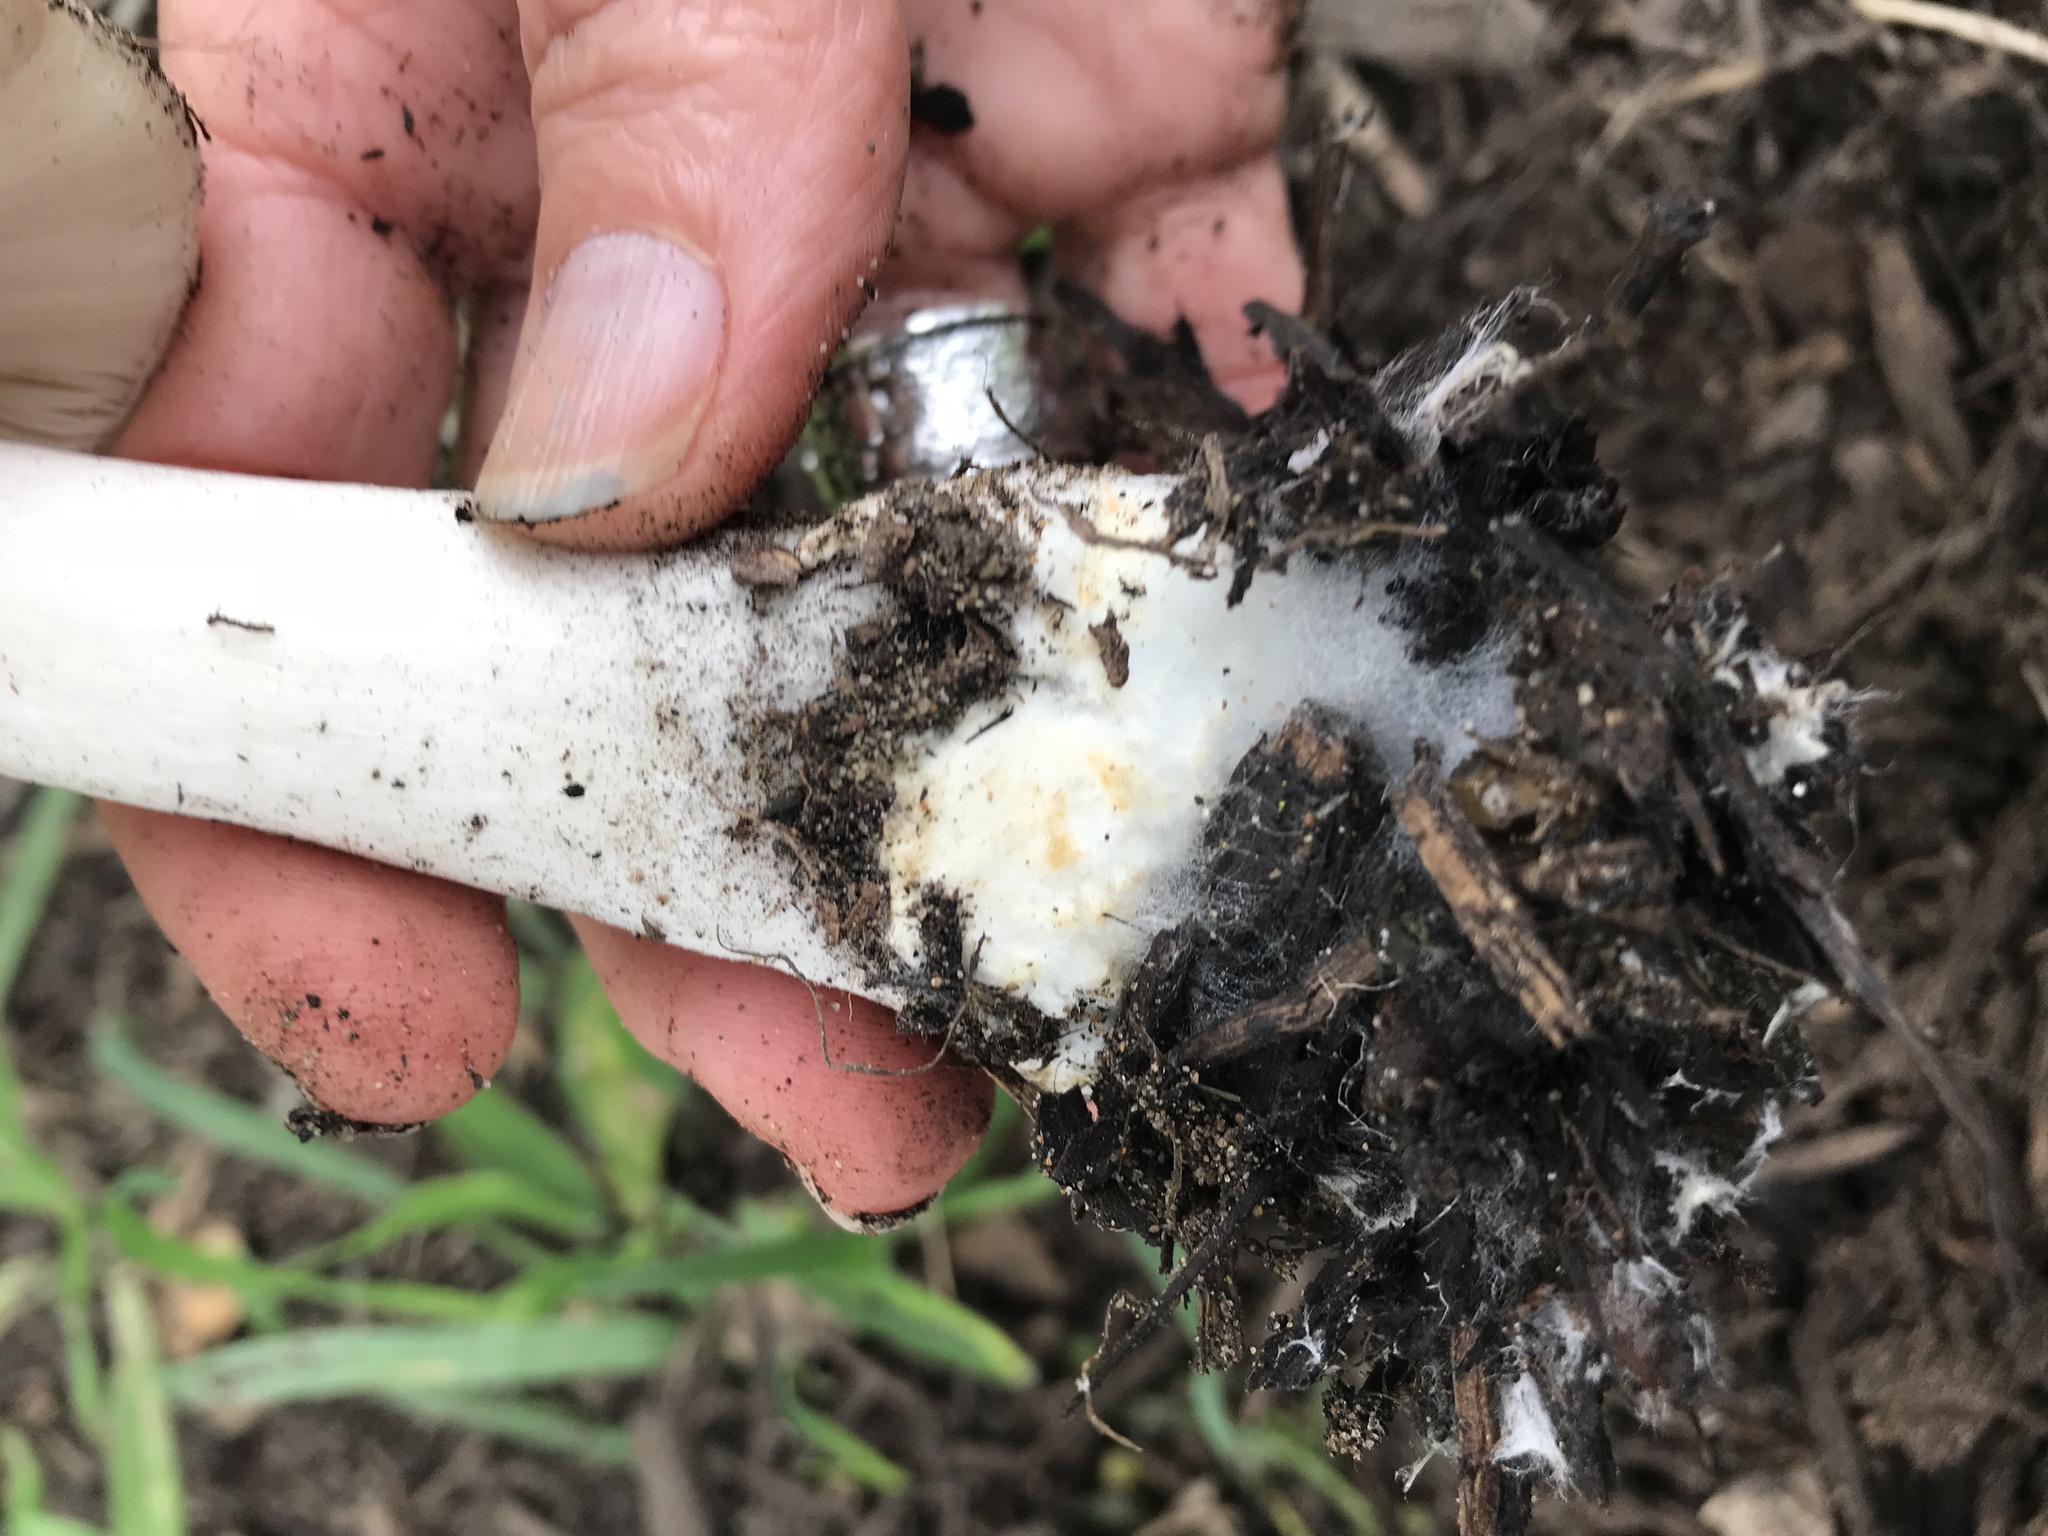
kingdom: Fungi
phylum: Basidiomycota
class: Agaricomycetes
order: Agaricales
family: Pluteaceae
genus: Volvopluteus
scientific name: Volvopluteus gloiocephalus
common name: Stubble rosegill
